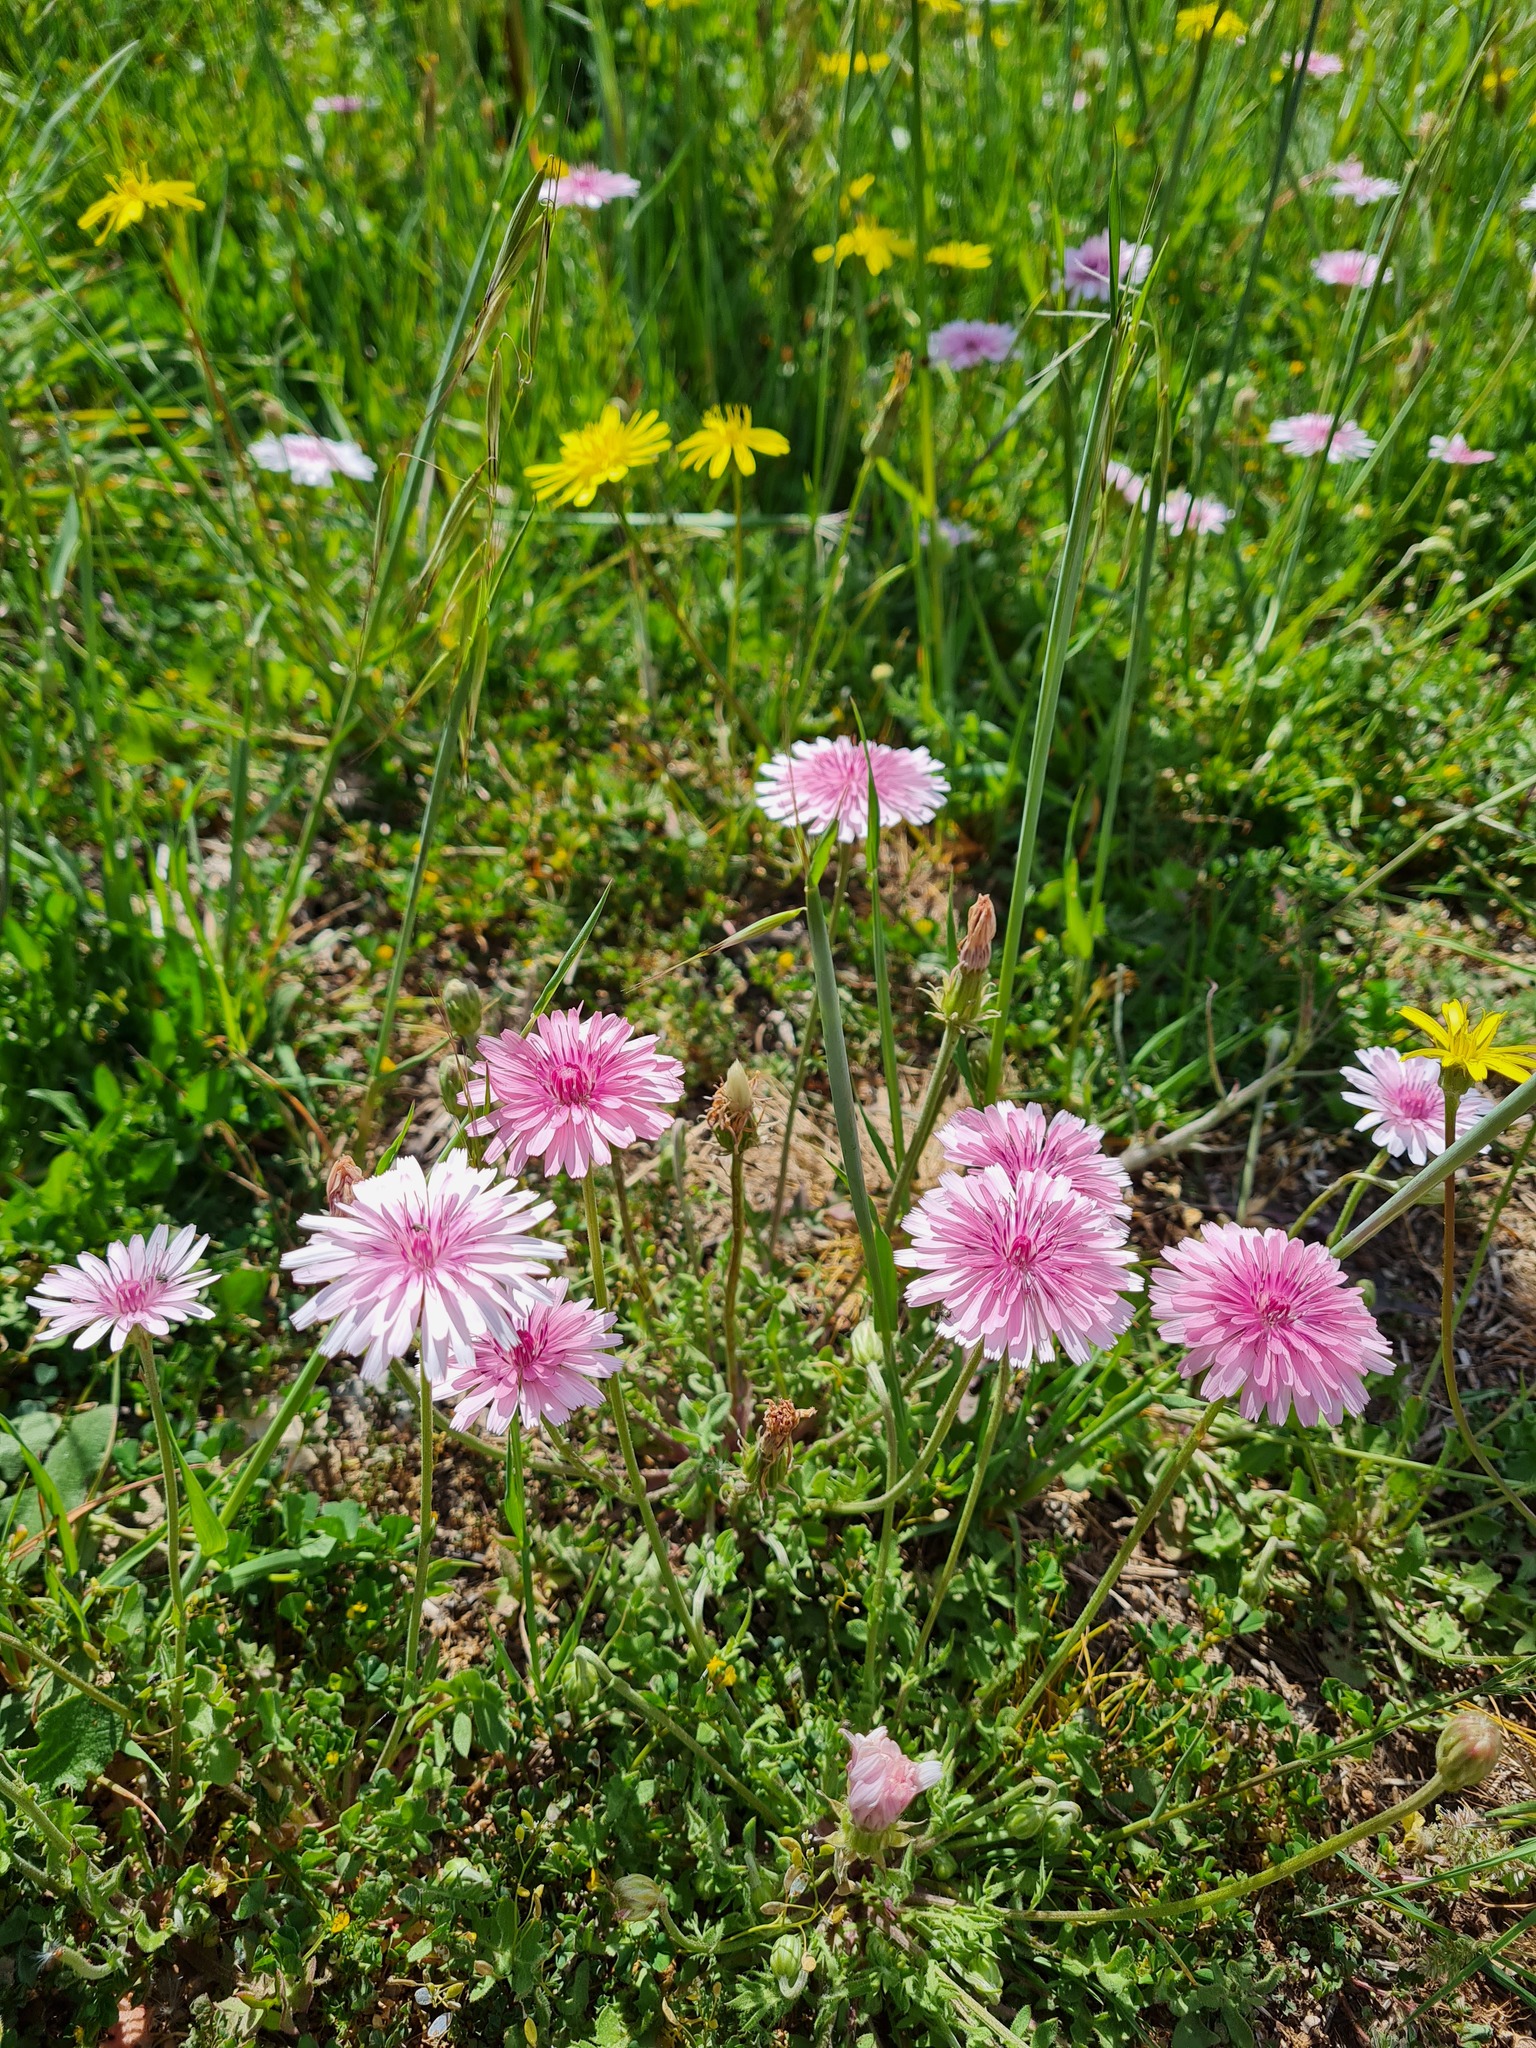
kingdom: Plantae
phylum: Tracheophyta
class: Magnoliopsida
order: Asterales
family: Asteraceae
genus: Crepis
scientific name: Crepis rubra
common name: Pink hawk's-beard
